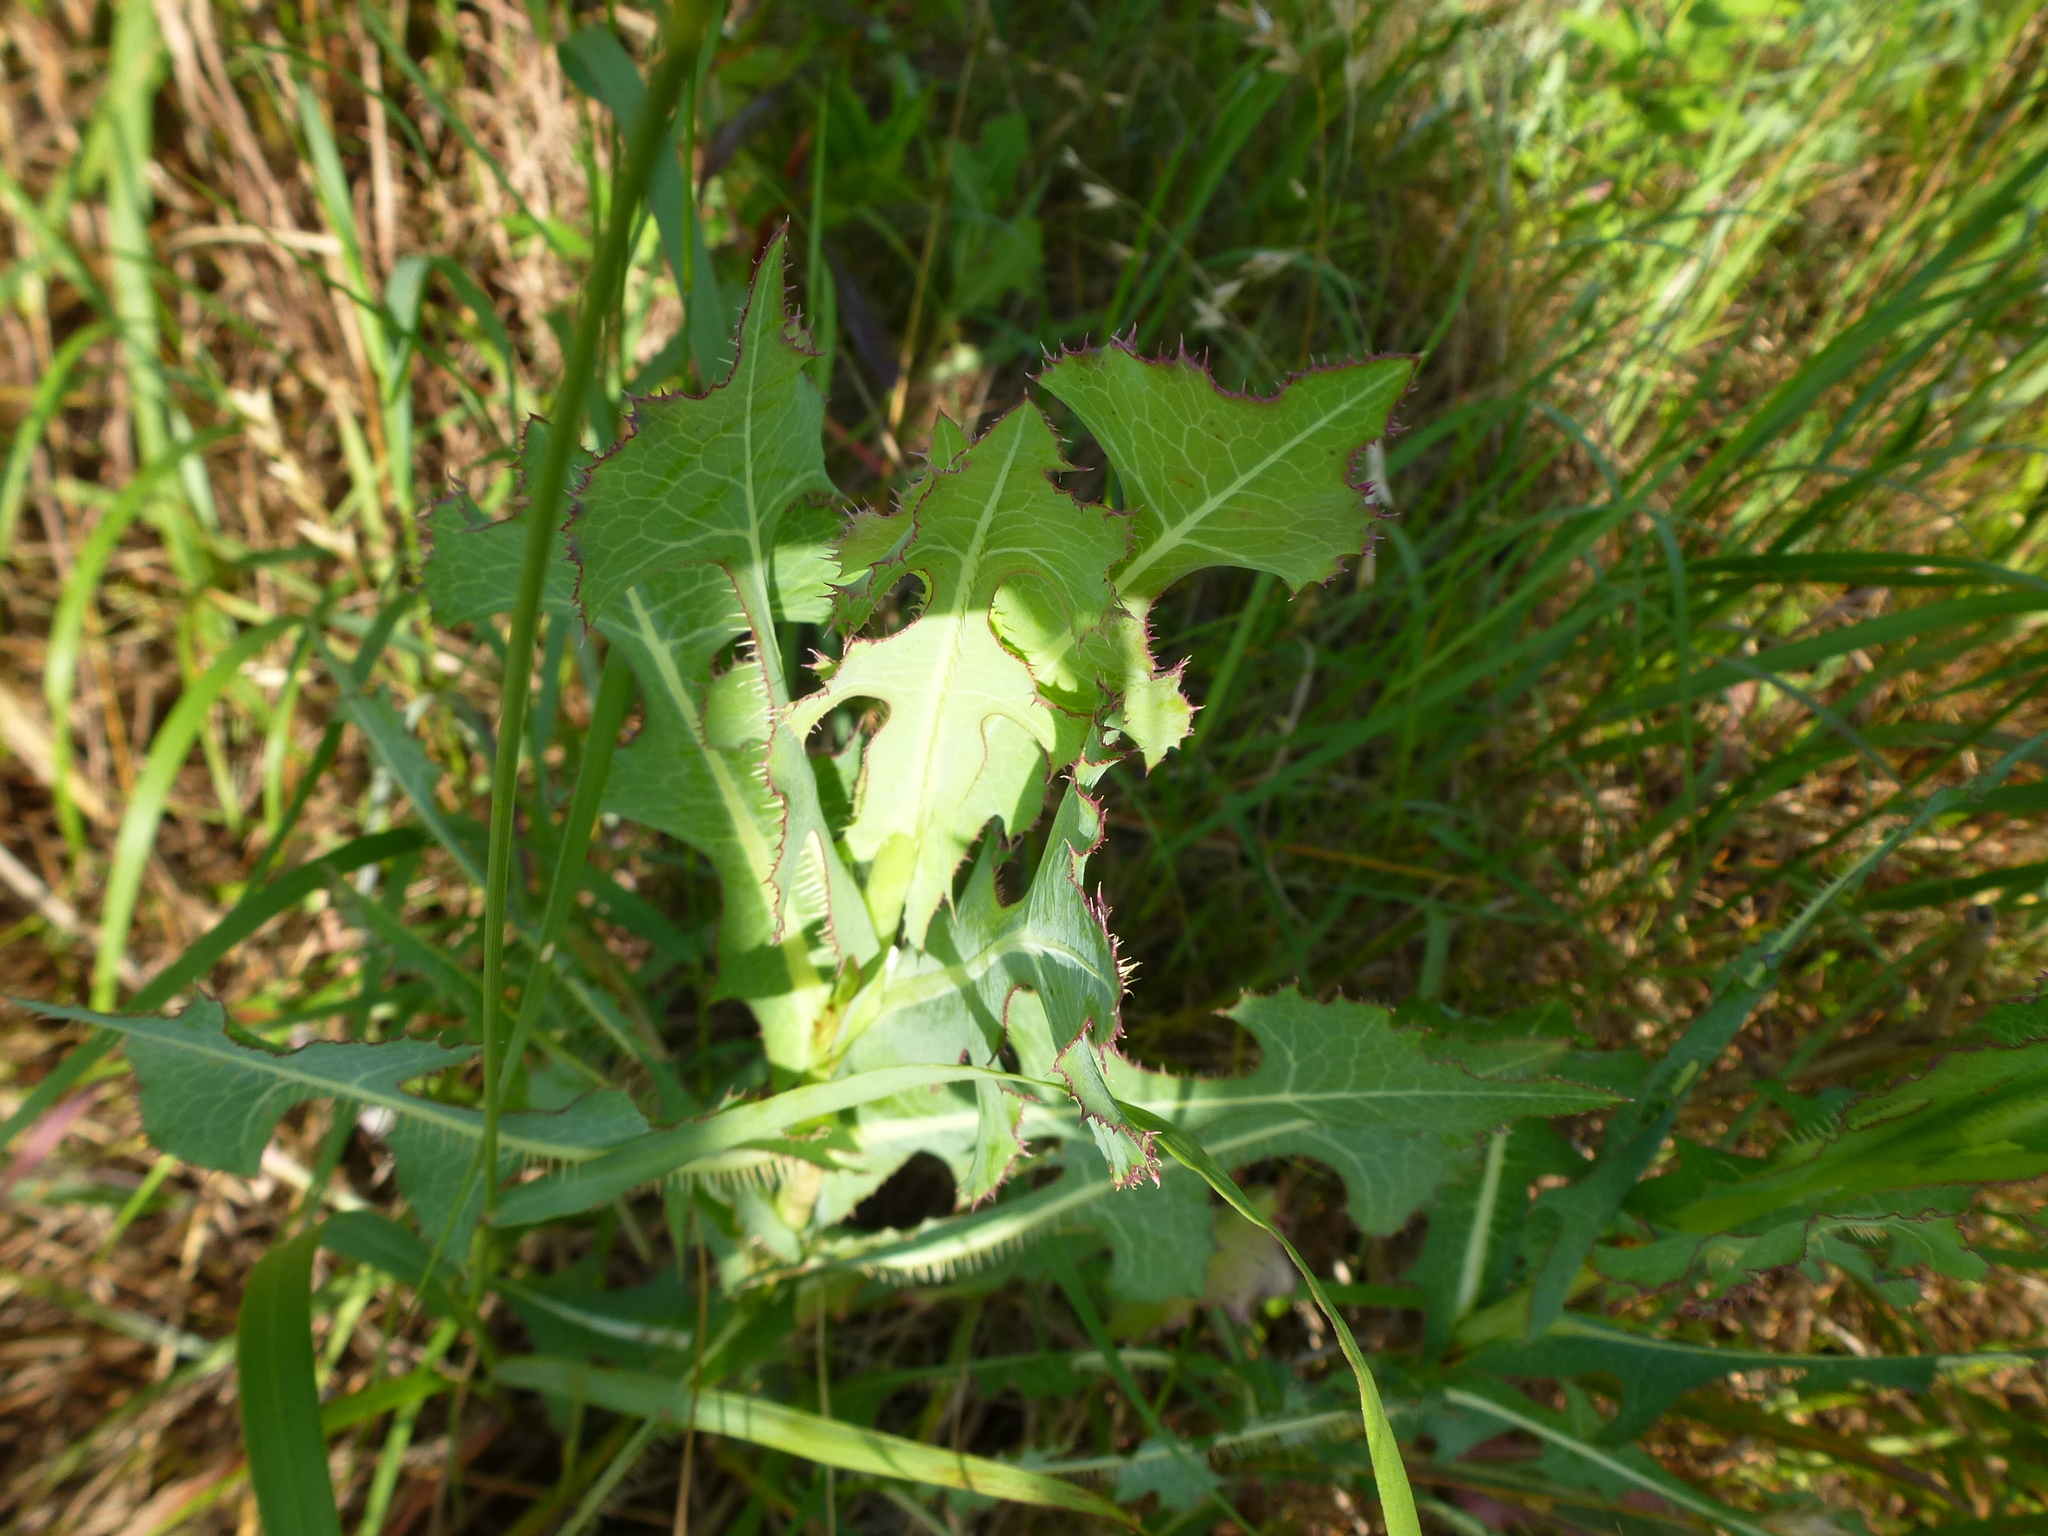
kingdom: Plantae
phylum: Tracheophyta
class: Magnoliopsida
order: Asterales
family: Asteraceae
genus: Lactuca
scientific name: Lactuca serriola
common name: Prickly lettuce
